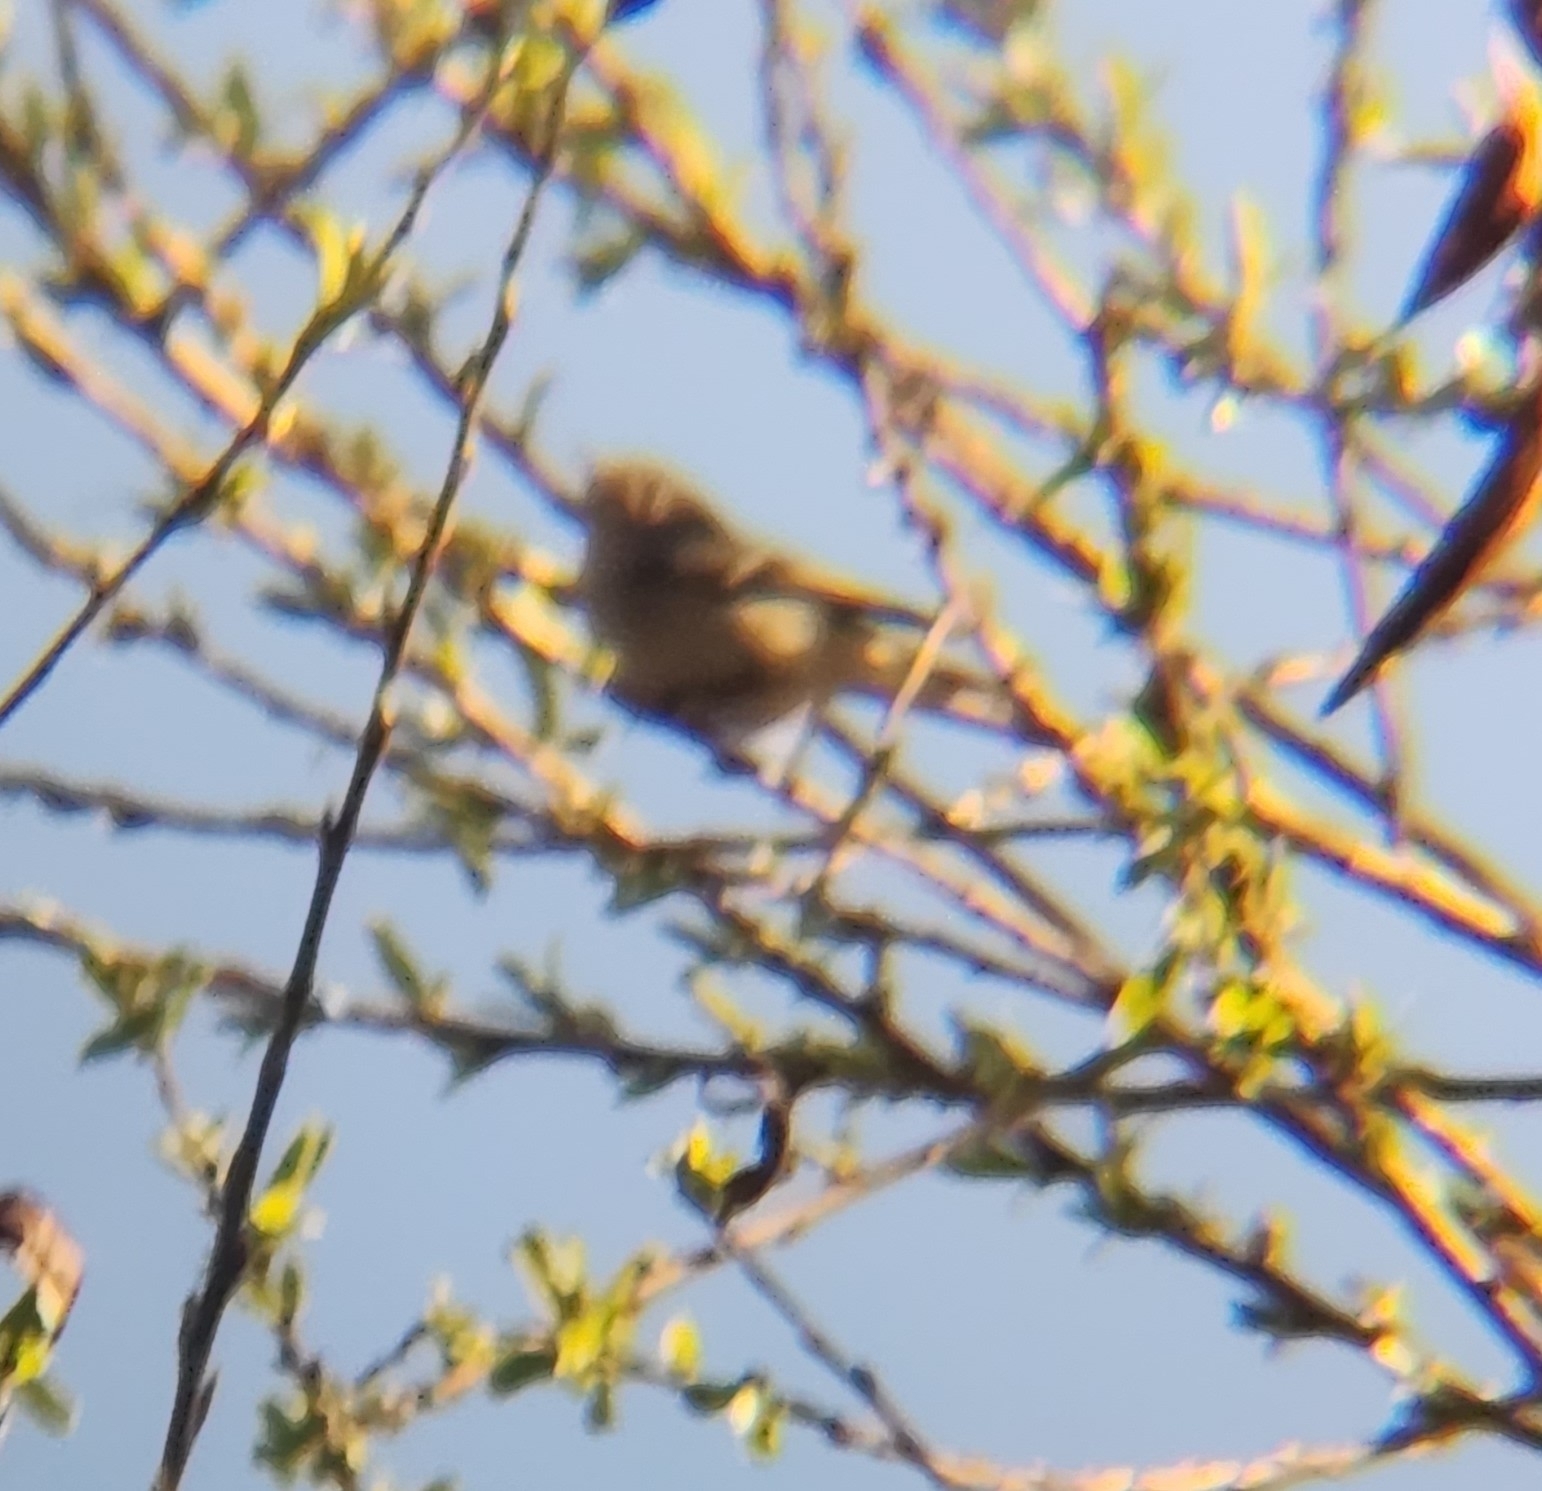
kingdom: Animalia
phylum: Chordata
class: Aves
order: Passeriformes
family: Regulidae
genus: Regulus
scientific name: Regulus calendula
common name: Ruby-crowned kinglet
